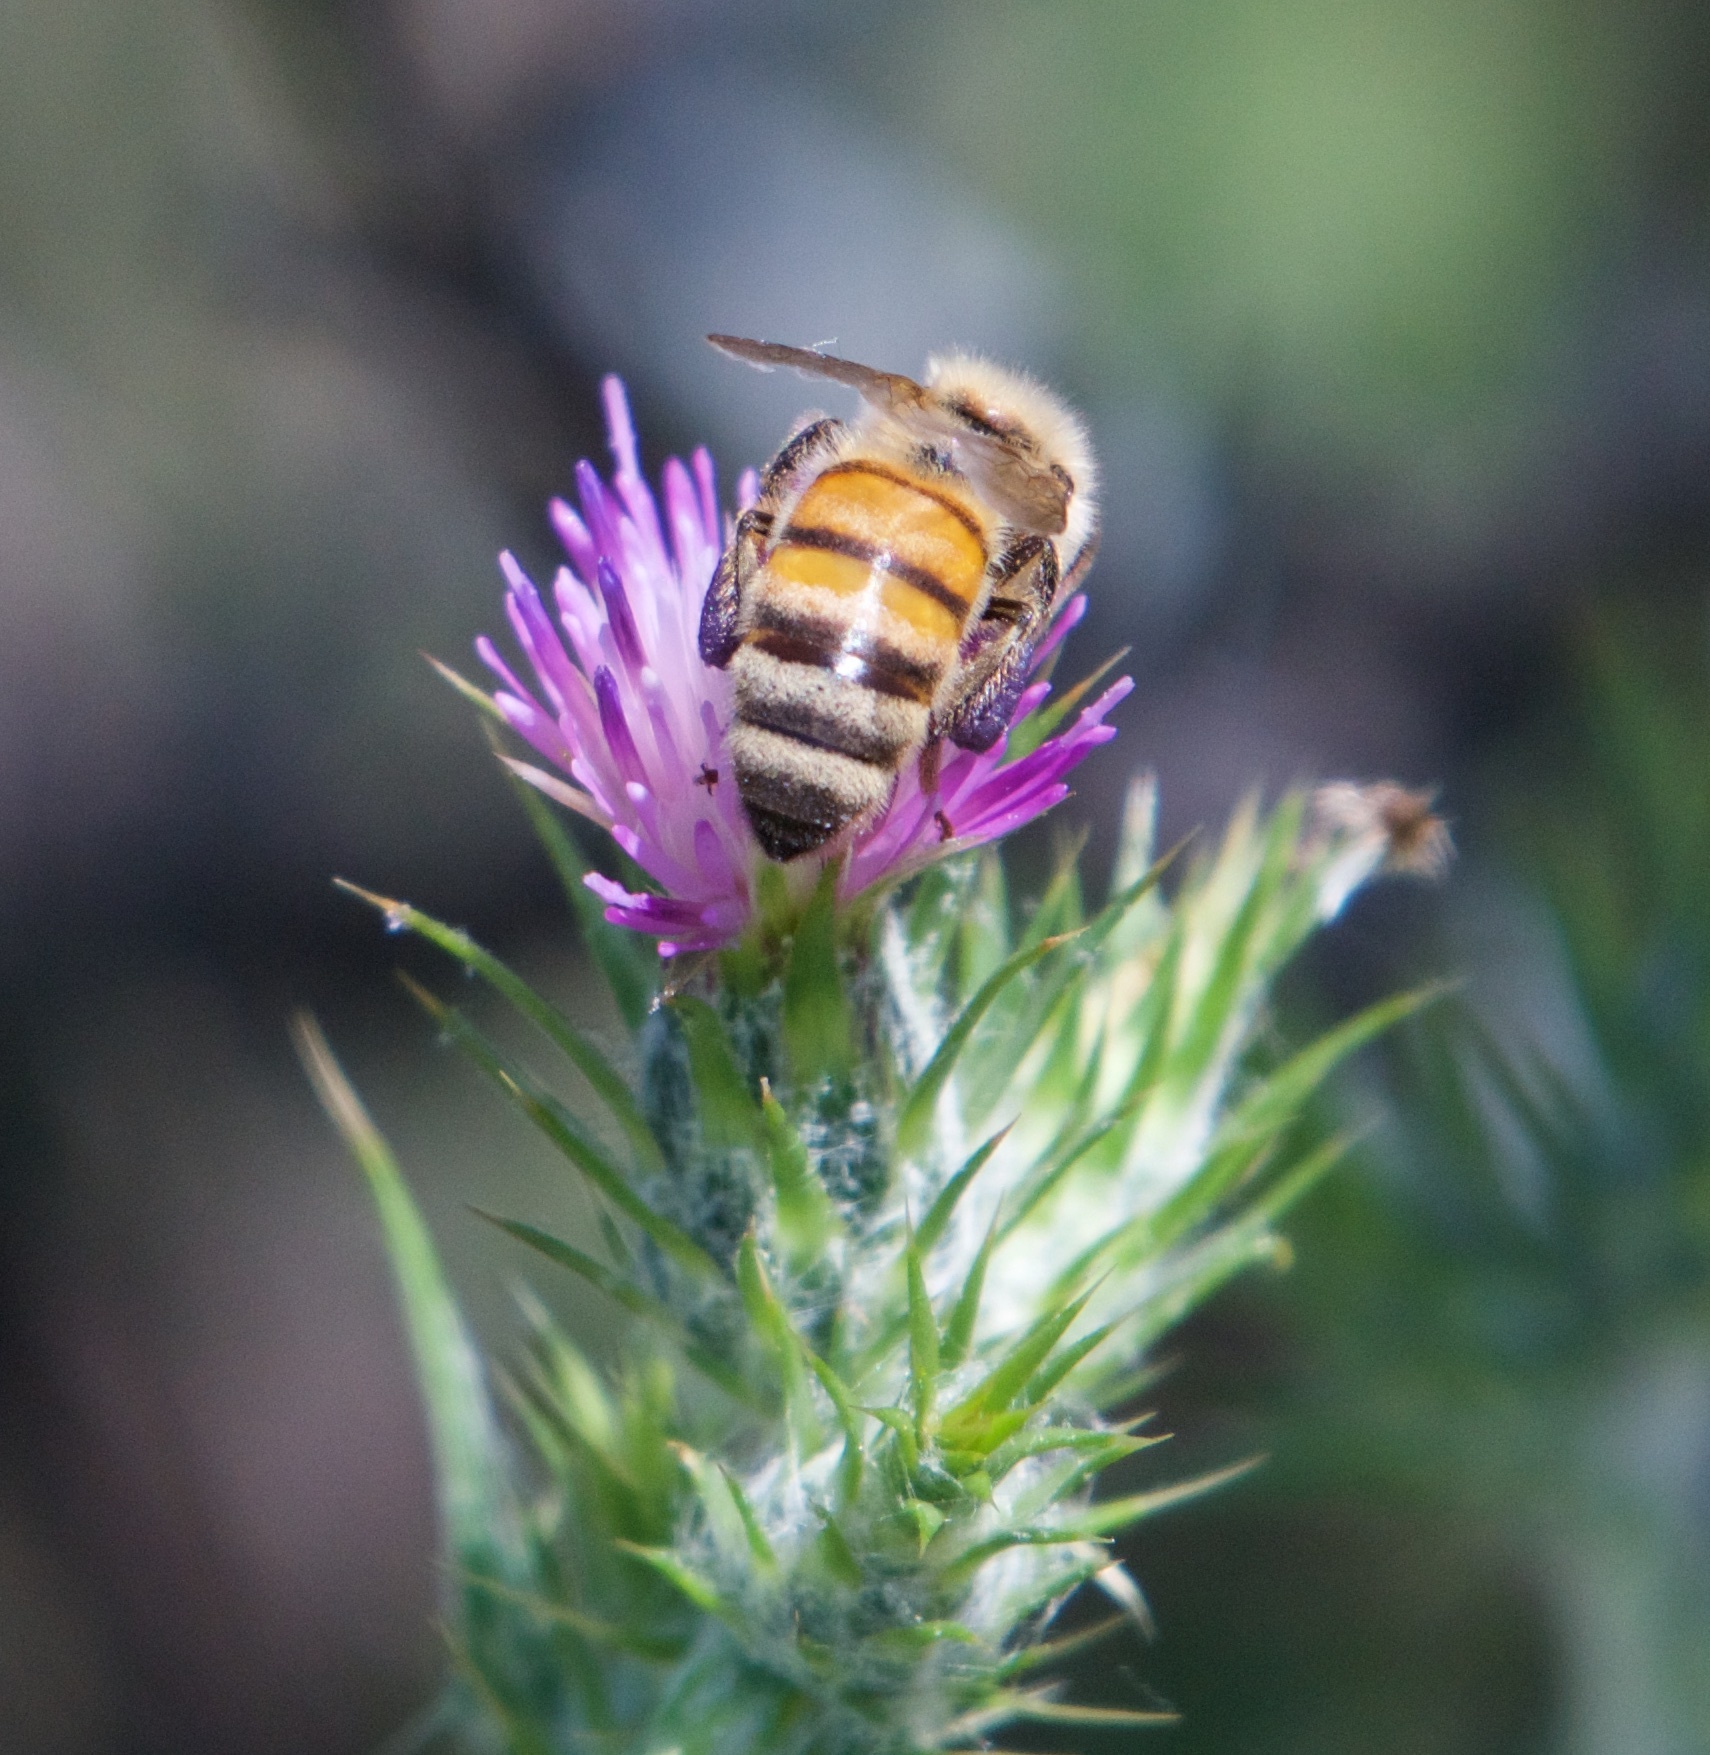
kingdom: Animalia
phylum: Arthropoda
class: Insecta
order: Hymenoptera
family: Apidae
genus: Apis
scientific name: Apis mellifera
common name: Honey bee
